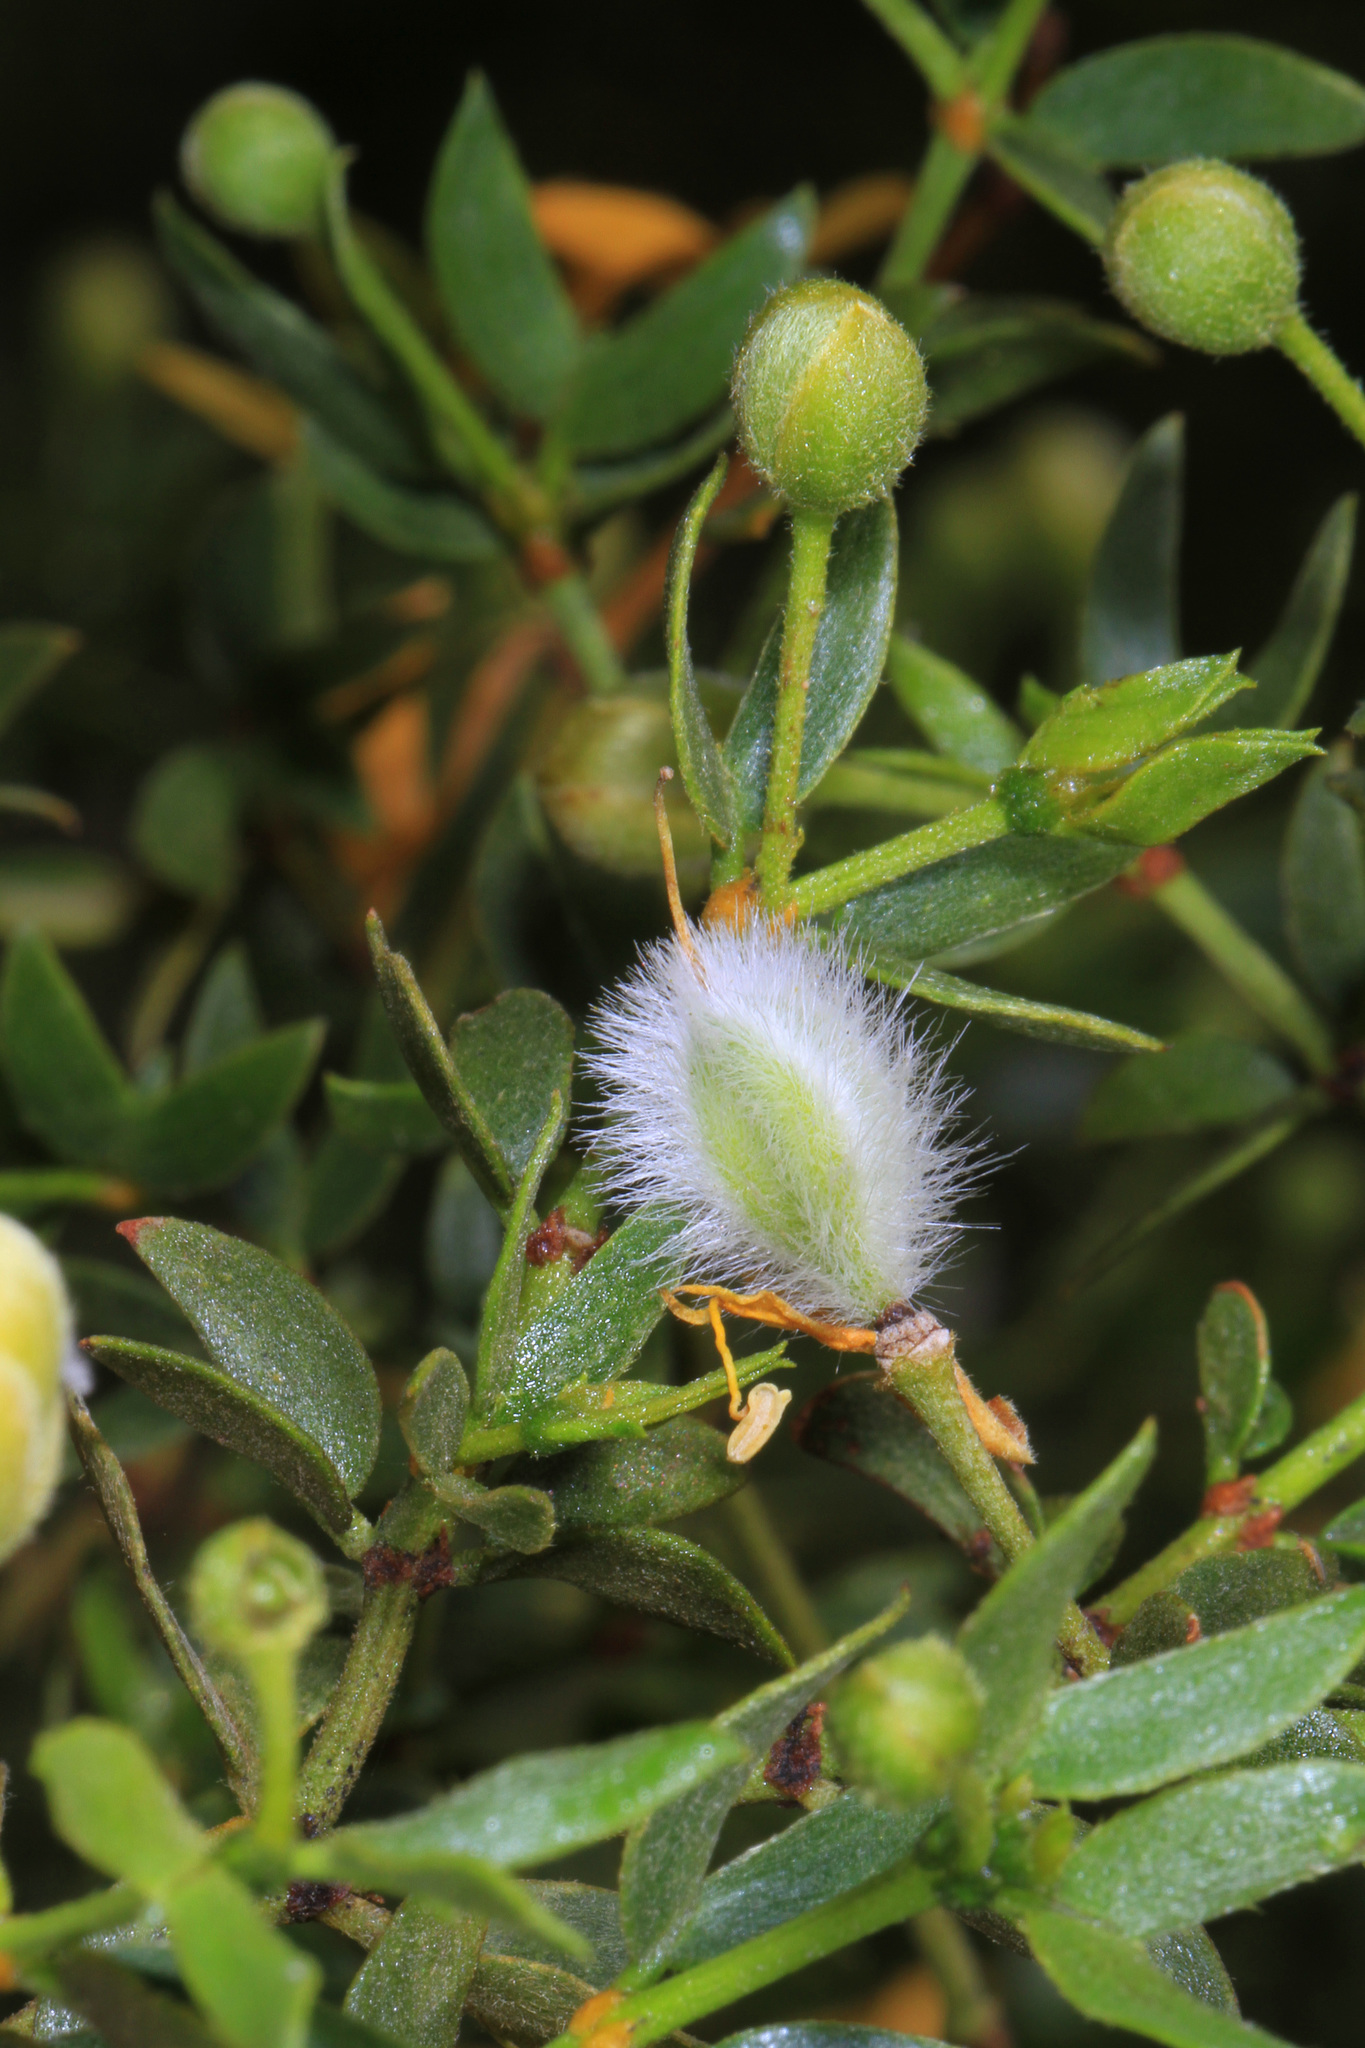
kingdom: Plantae
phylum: Tracheophyta
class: Magnoliopsida
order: Zygophyllales
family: Zygophyllaceae
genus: Larrea
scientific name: Larrea tridentata
